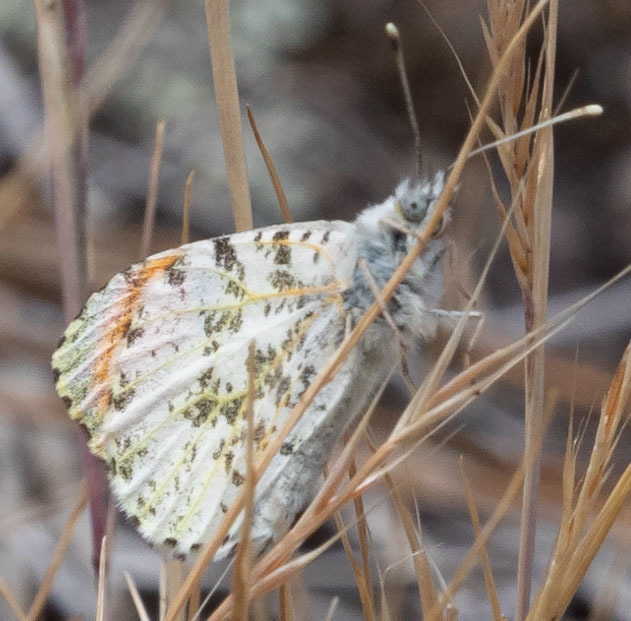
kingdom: Animalia
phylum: Arthropoda
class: Insecta
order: Lepidoptera
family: Pieridae
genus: Anthocharis
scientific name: Anthocharis sara
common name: Sara's orangetip
